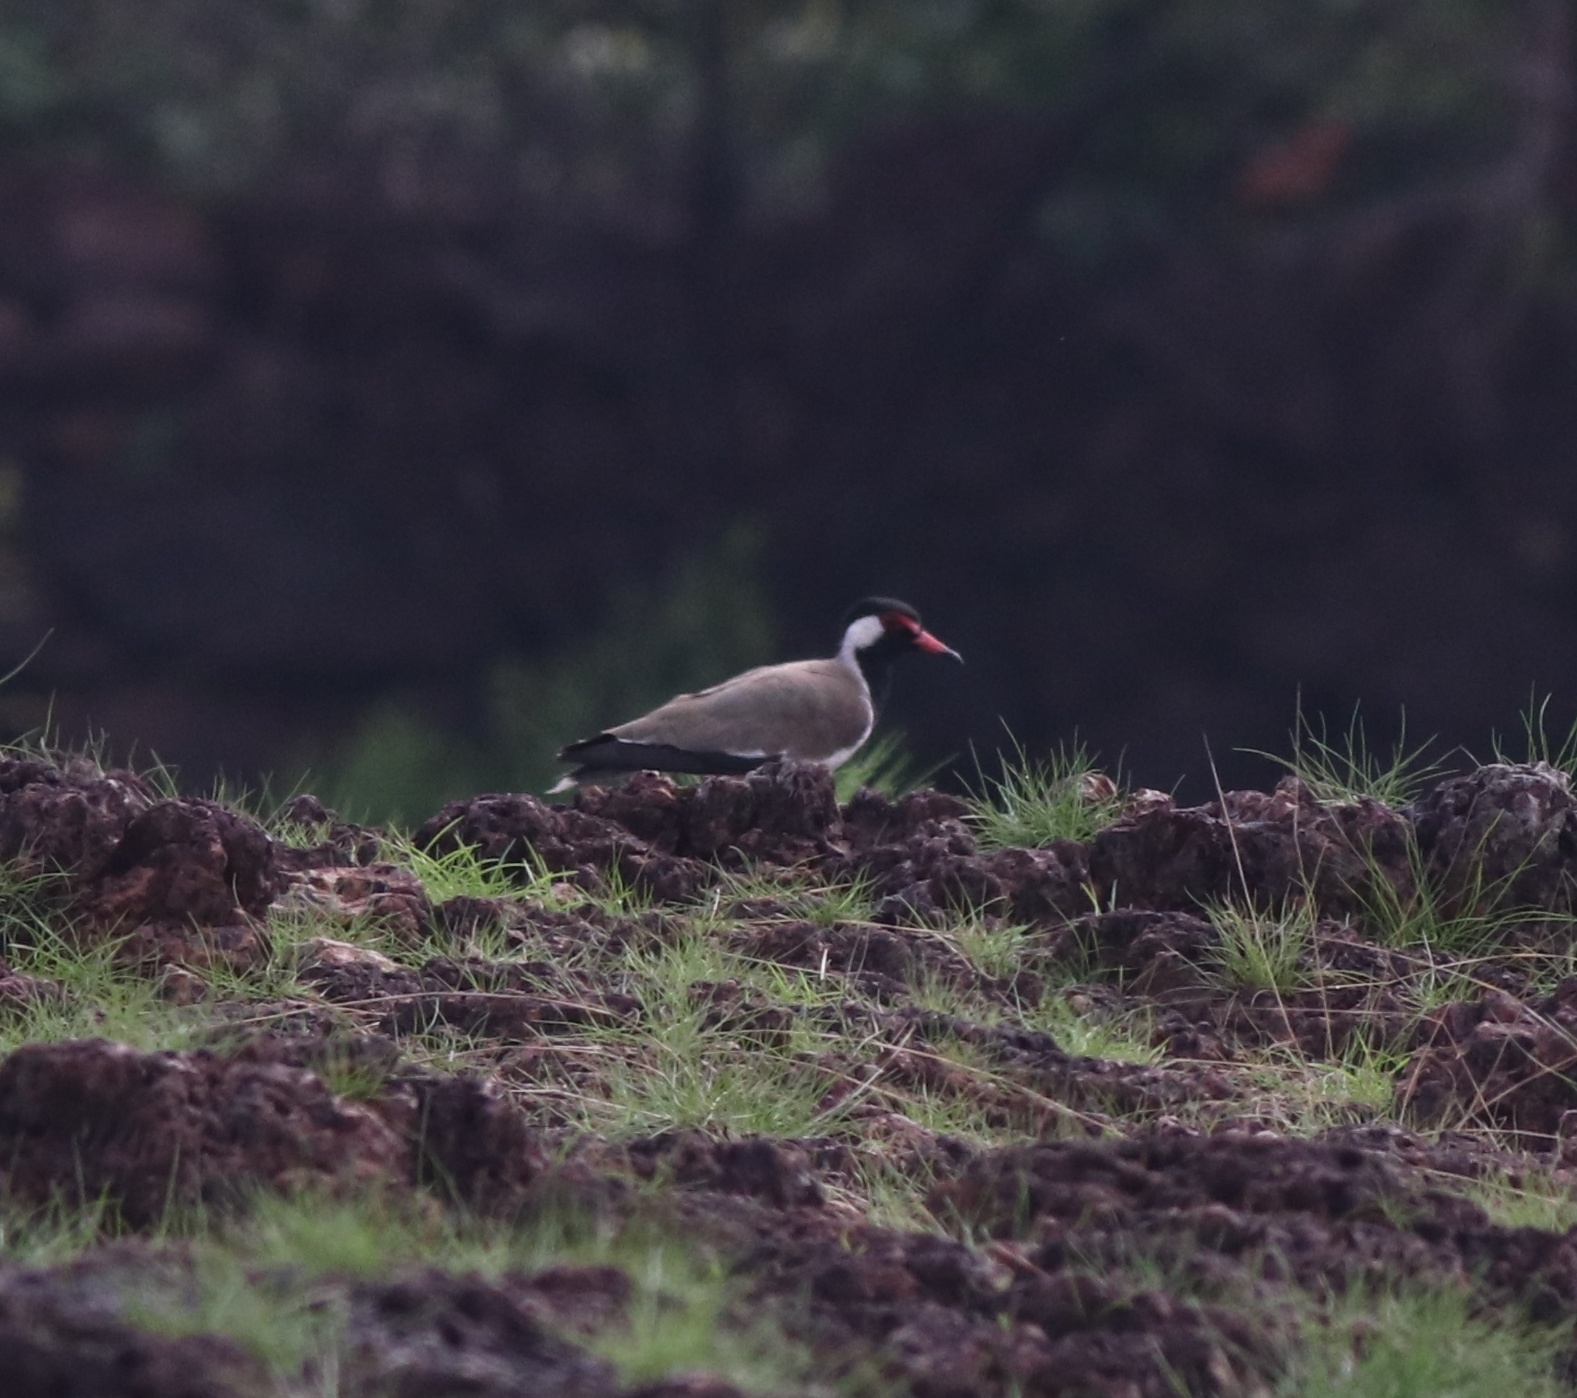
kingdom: Animalia
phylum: Chordata
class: Aves
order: Charadriiformes
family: Charadriidae
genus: Vanellus
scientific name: Vanellus indicus
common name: Red-wattled lapwing
